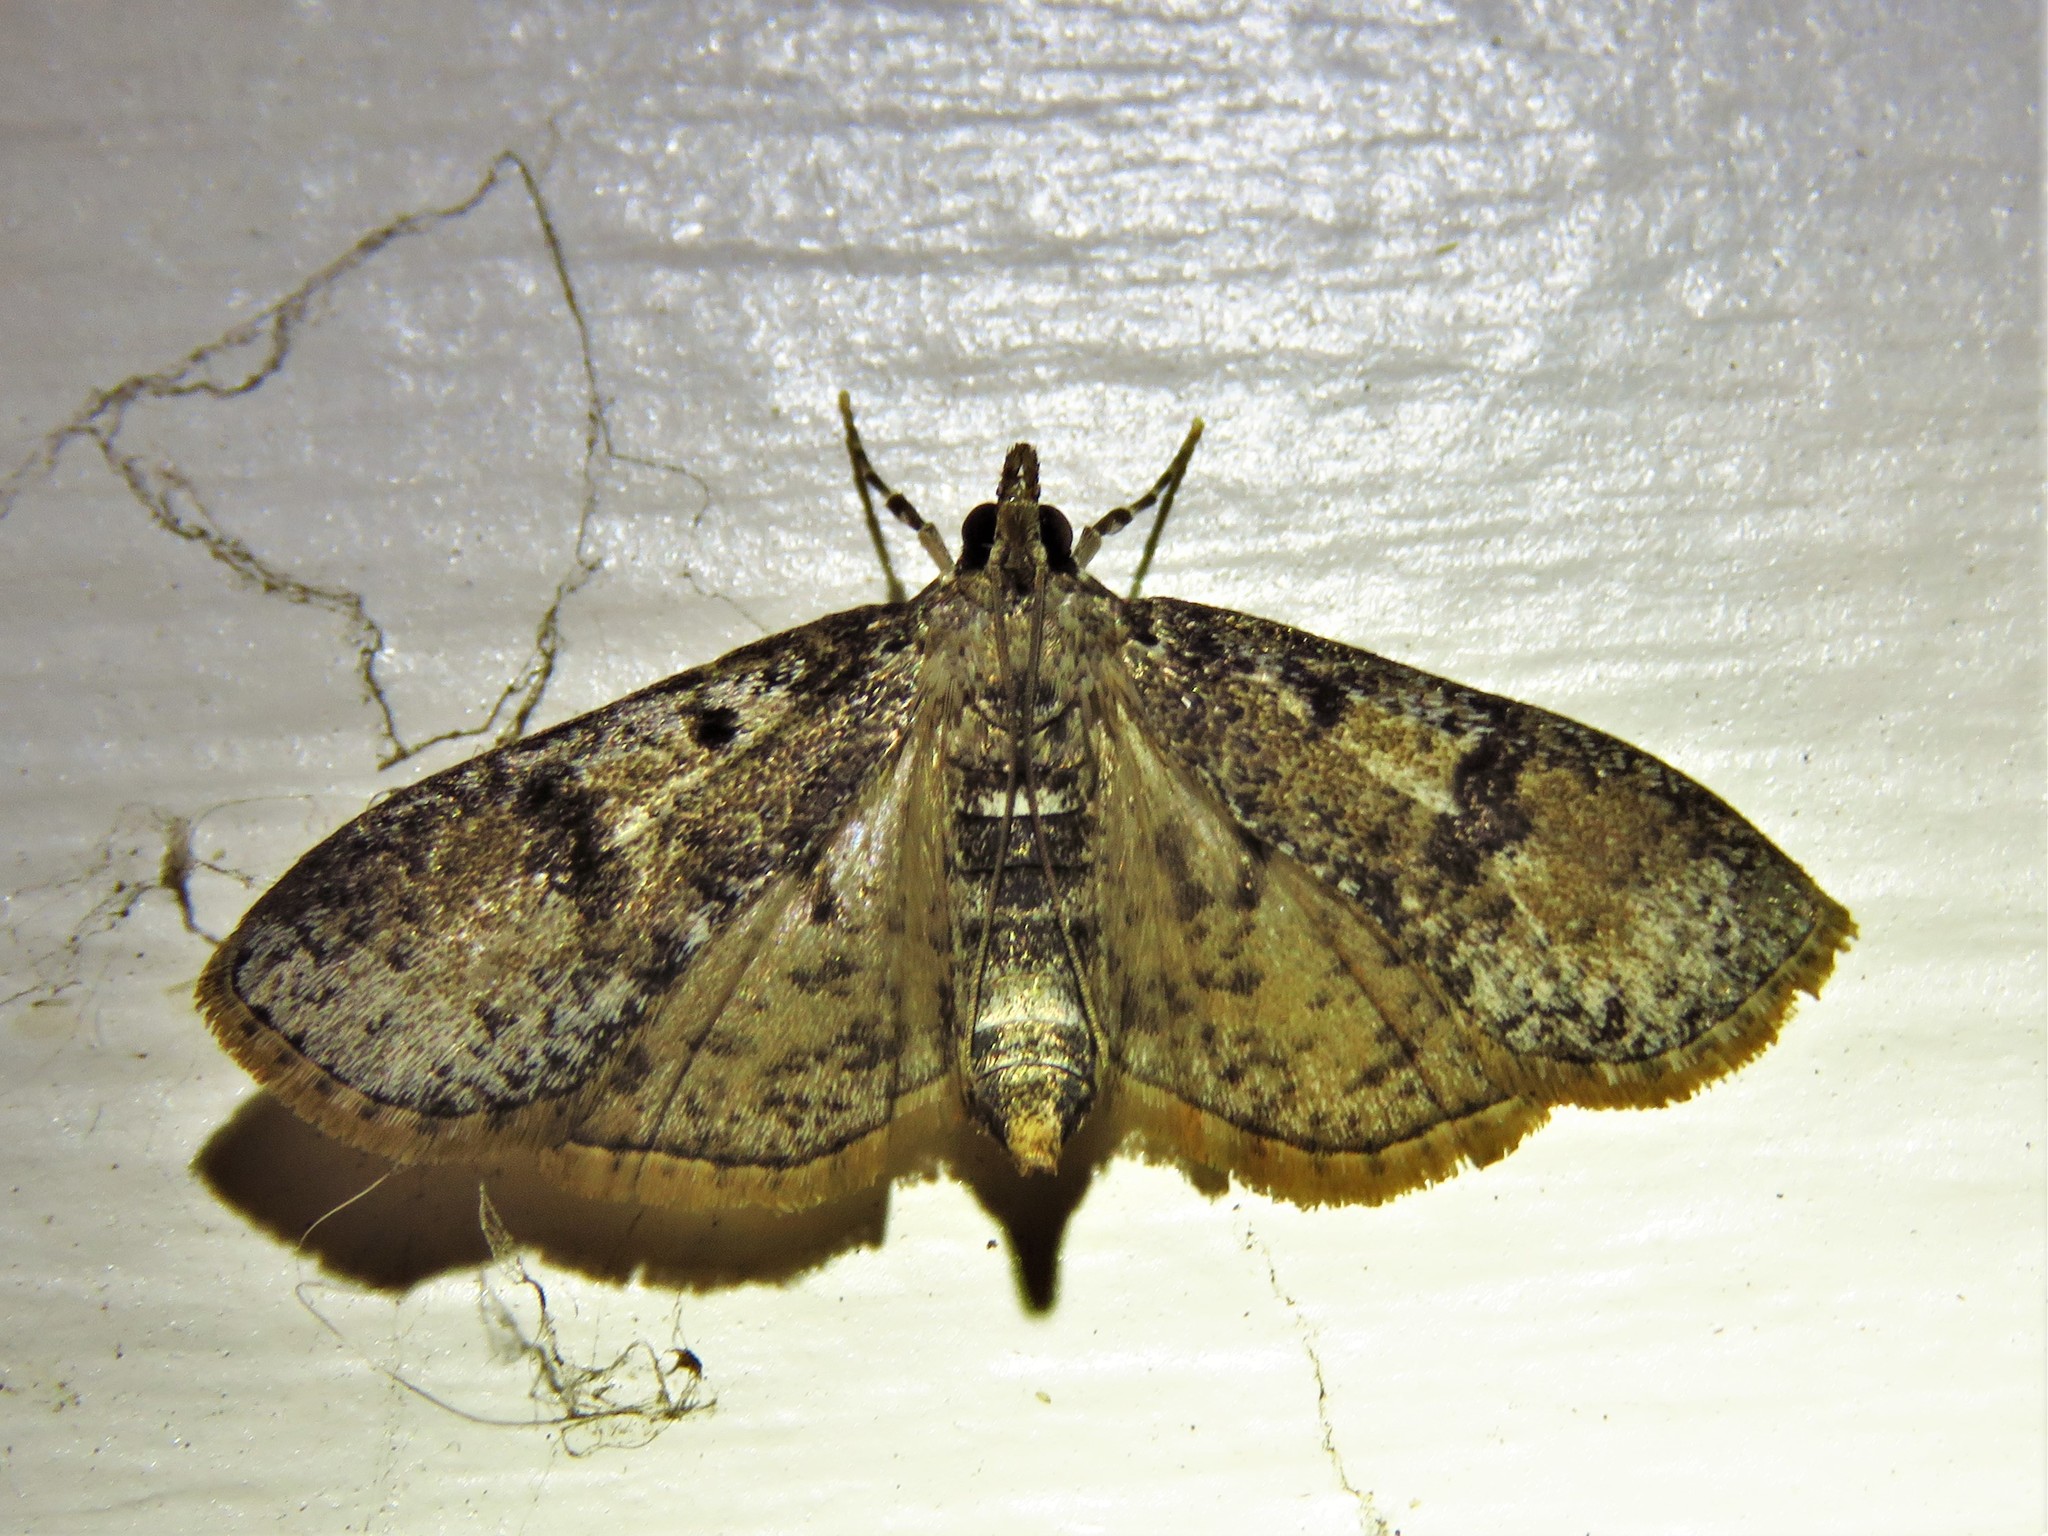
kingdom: Animalia
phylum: Arthropoda
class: Insecta
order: Lepidoptera
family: Crambidae
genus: Palpita
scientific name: Palpita magniferalis
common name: Splendid palpita moth
